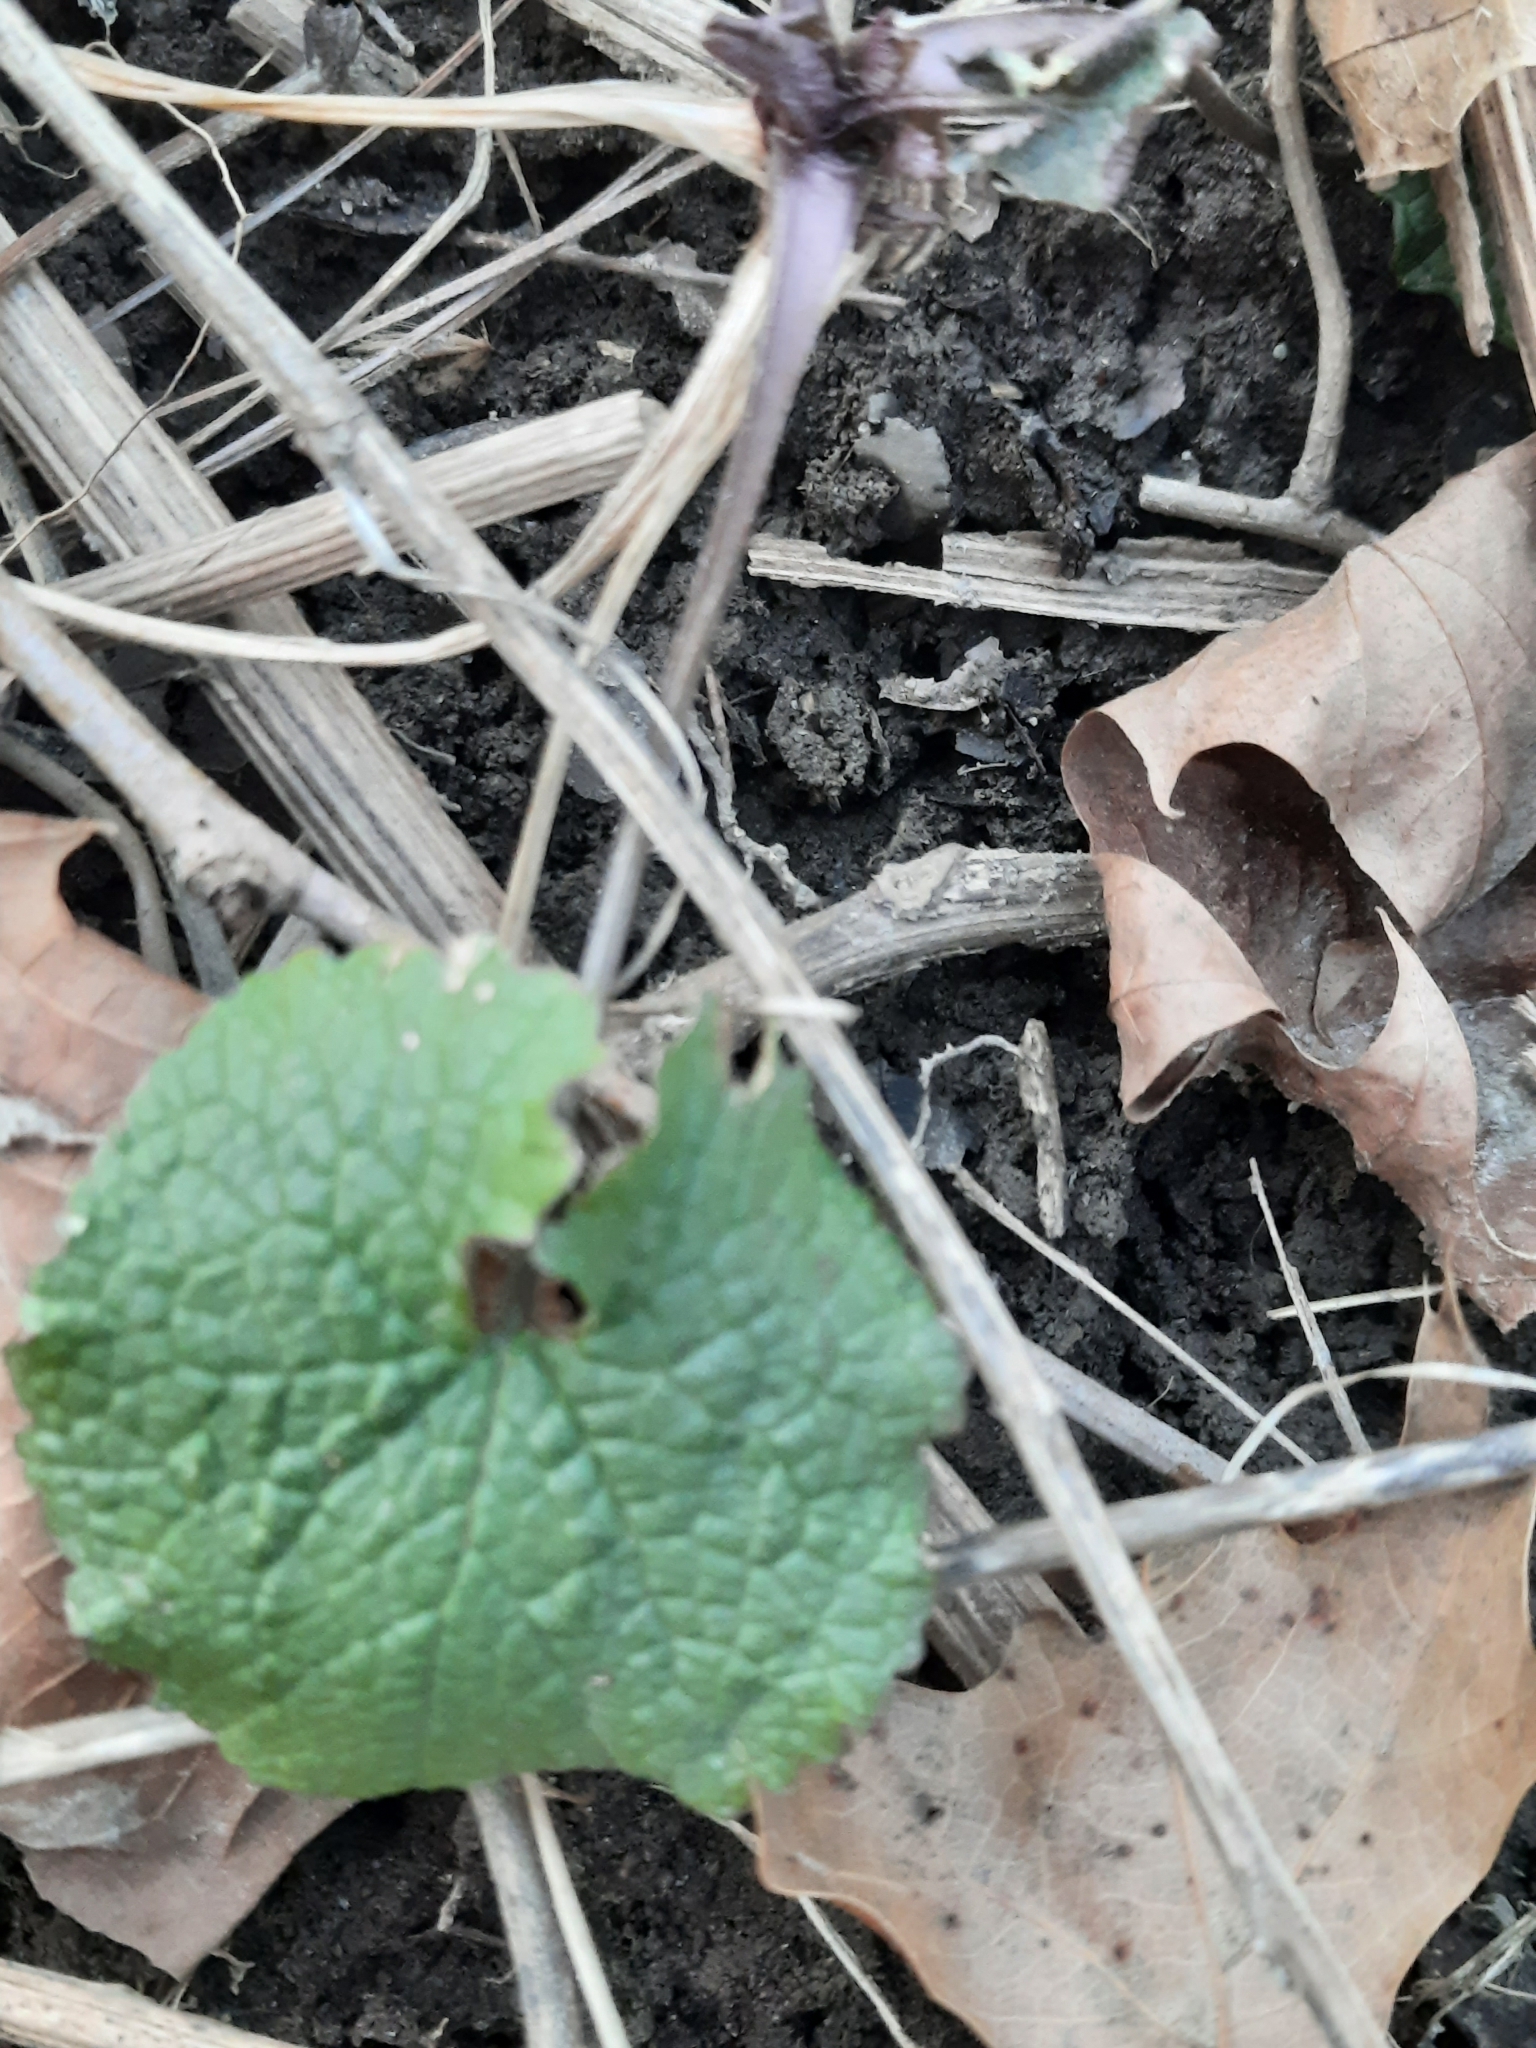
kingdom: Plantae
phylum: Tracheophyta
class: Magnoliopsida
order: Brassicales
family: Brassicaceae
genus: Alliaria
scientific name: Alliaria petiolata
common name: Garlic mustard
